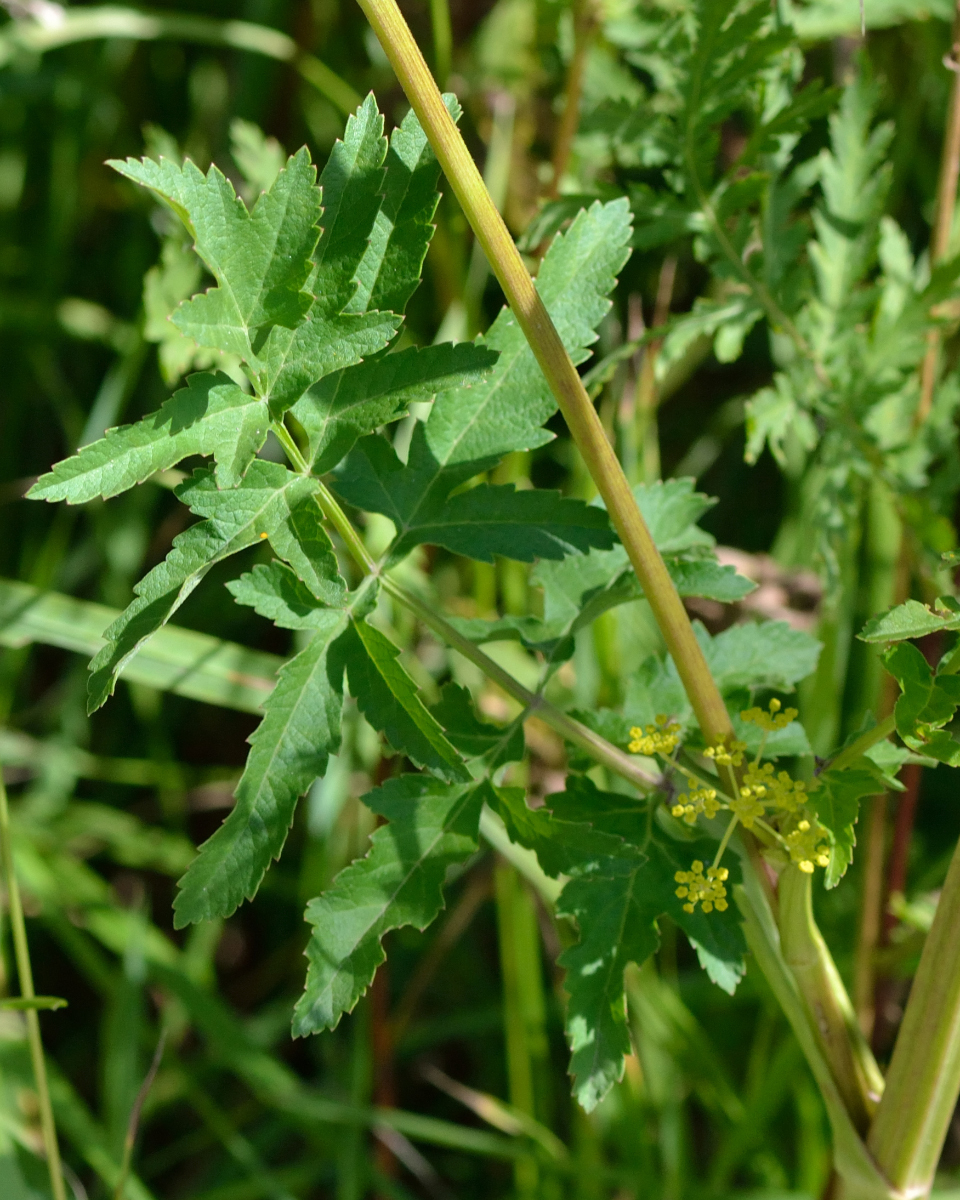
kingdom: Plantae
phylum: Tracheophyta
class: Magnoliopsida
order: Apiales
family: Apiaceae
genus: Pastinaca
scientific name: Pastinaca sativa
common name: Wild parsnip
